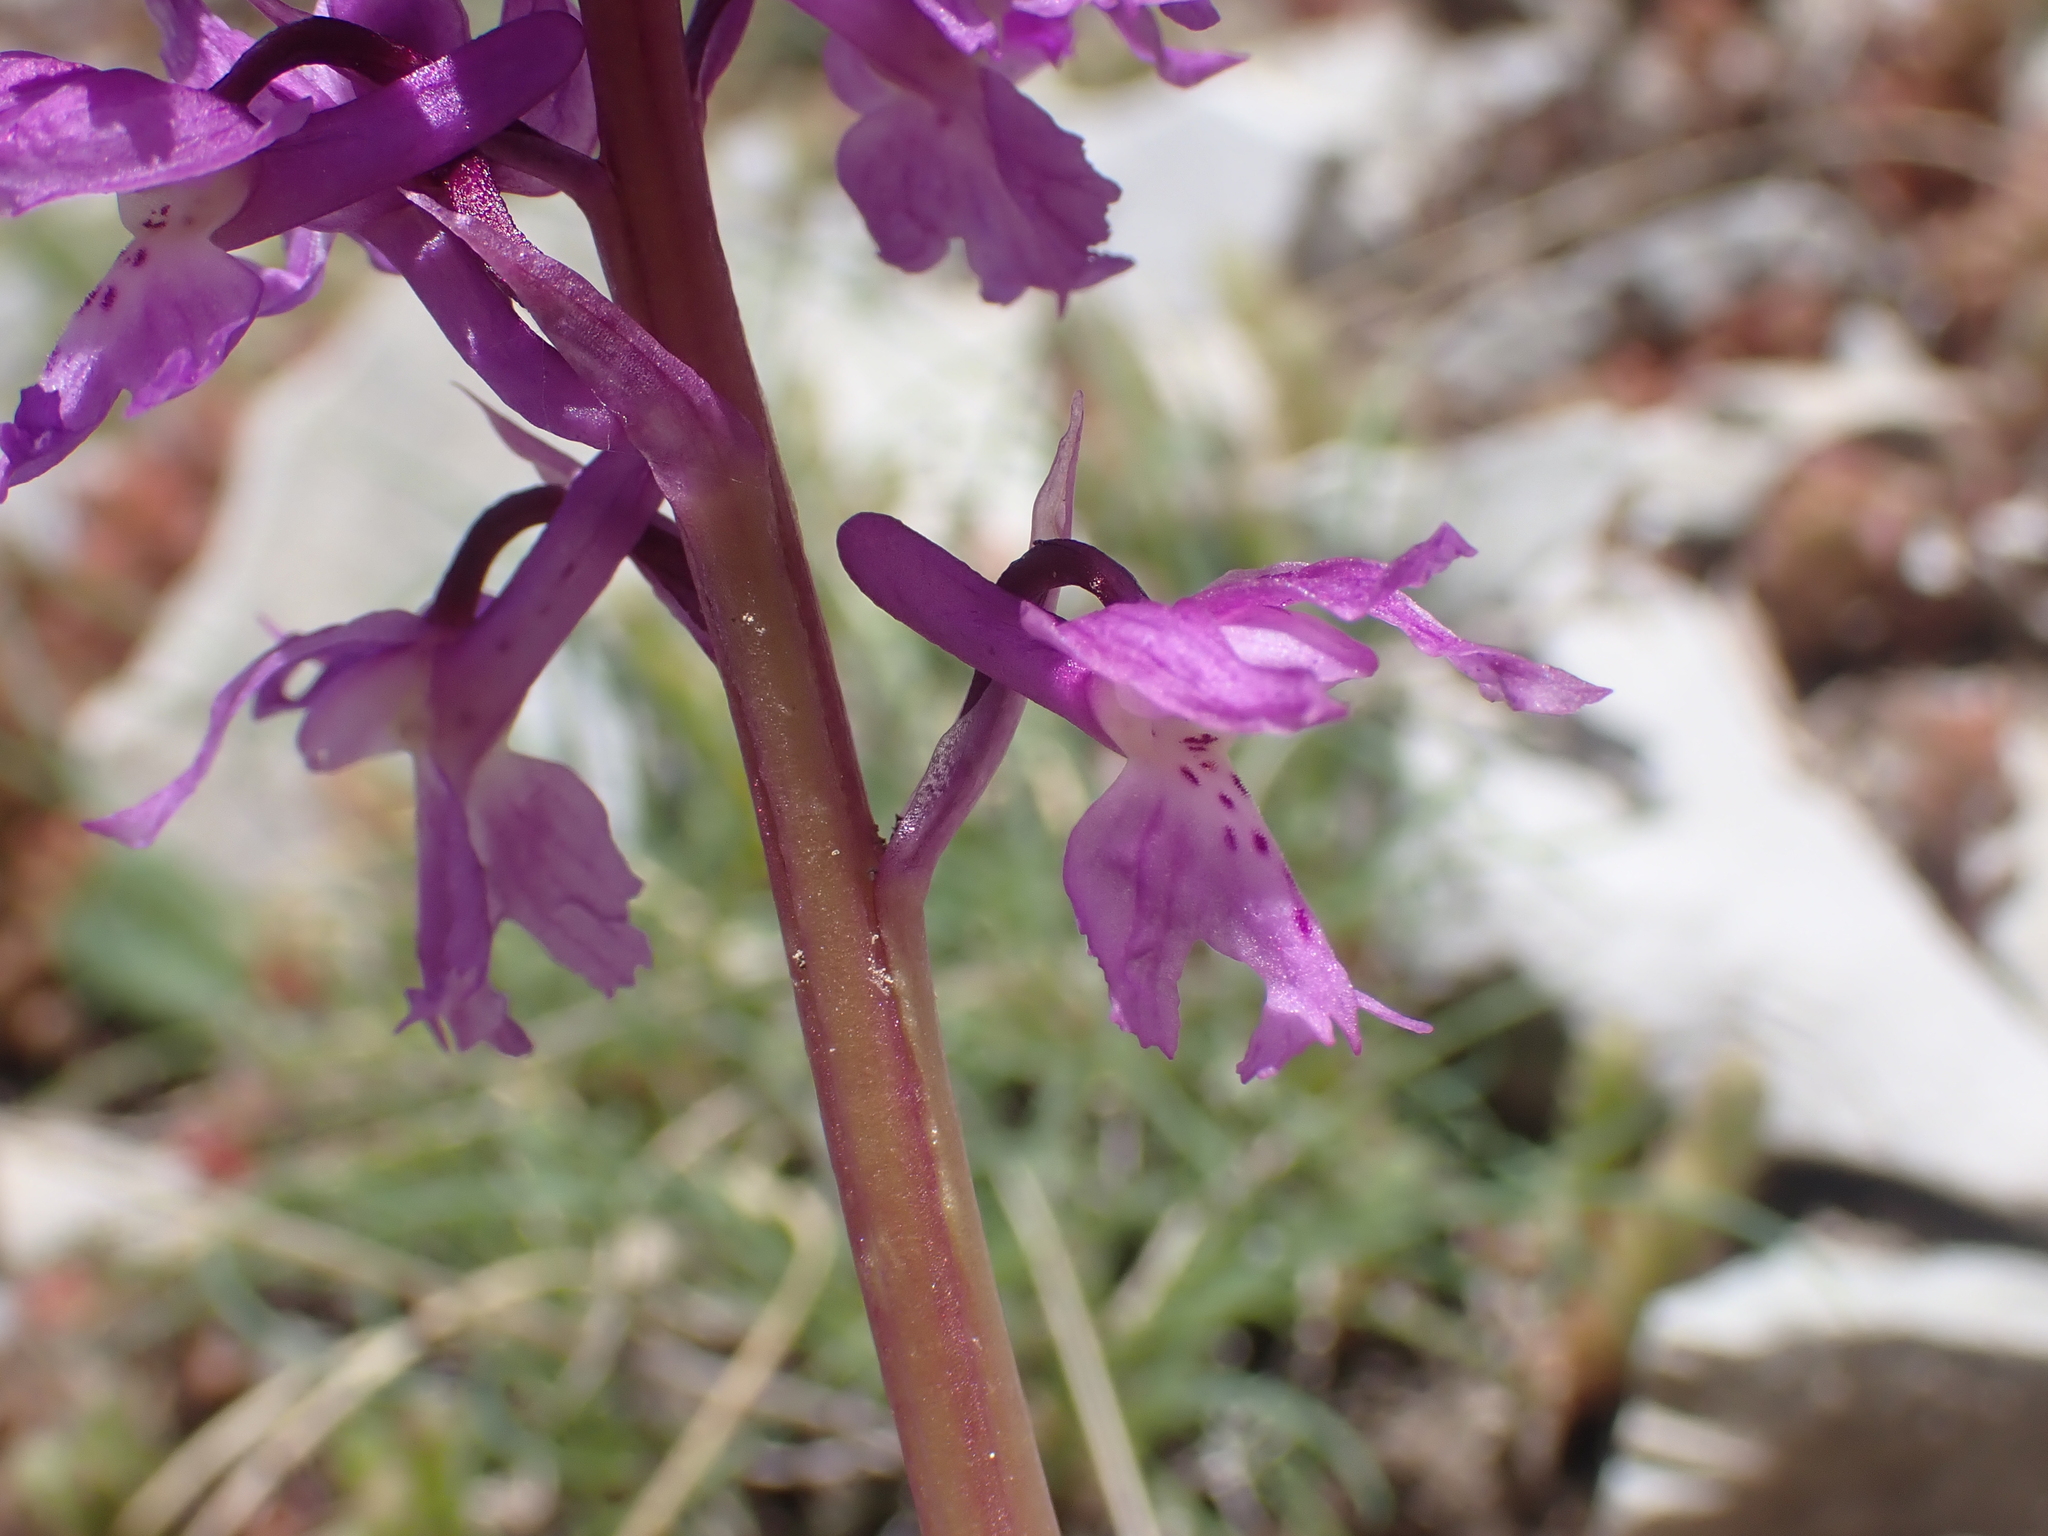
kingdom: Plantae
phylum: Tracheophyta
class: Liliopsida
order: Asparagales
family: Orchidaceae
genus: Orchis
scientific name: Orchis mascula
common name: Early-purple orchid
